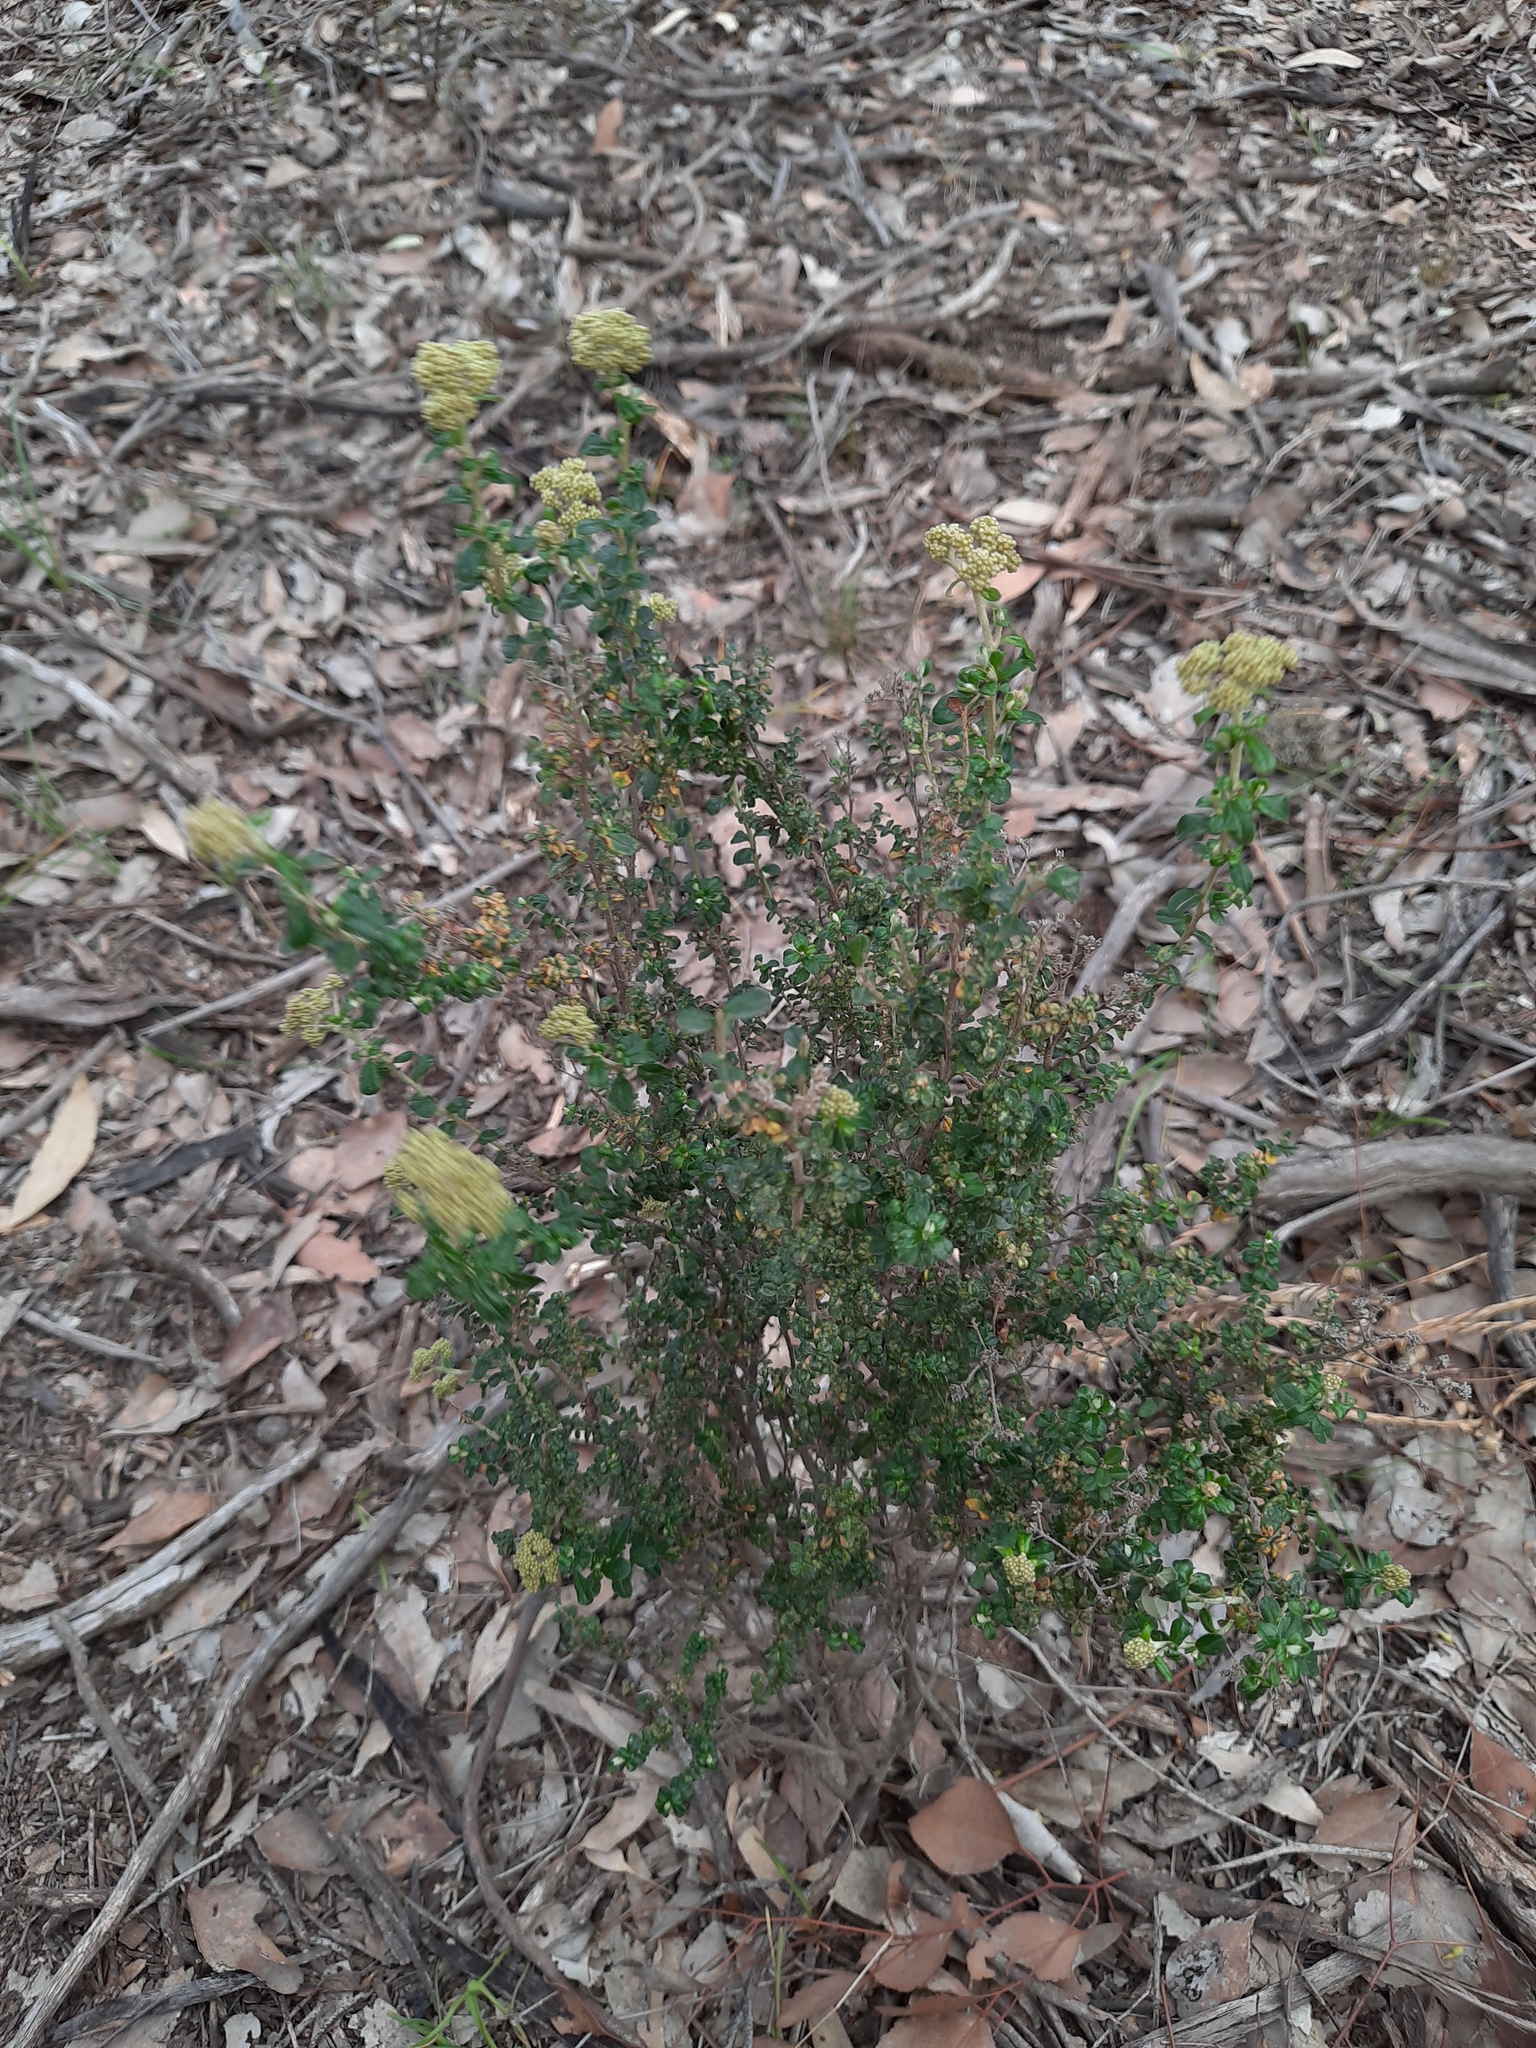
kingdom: Plantae
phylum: Tracheophyta
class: Magnoliopsida
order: Asterales
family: Asteraceae
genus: Ozothamnus
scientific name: Ozothamnus obcordatus
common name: Grey everlasting
